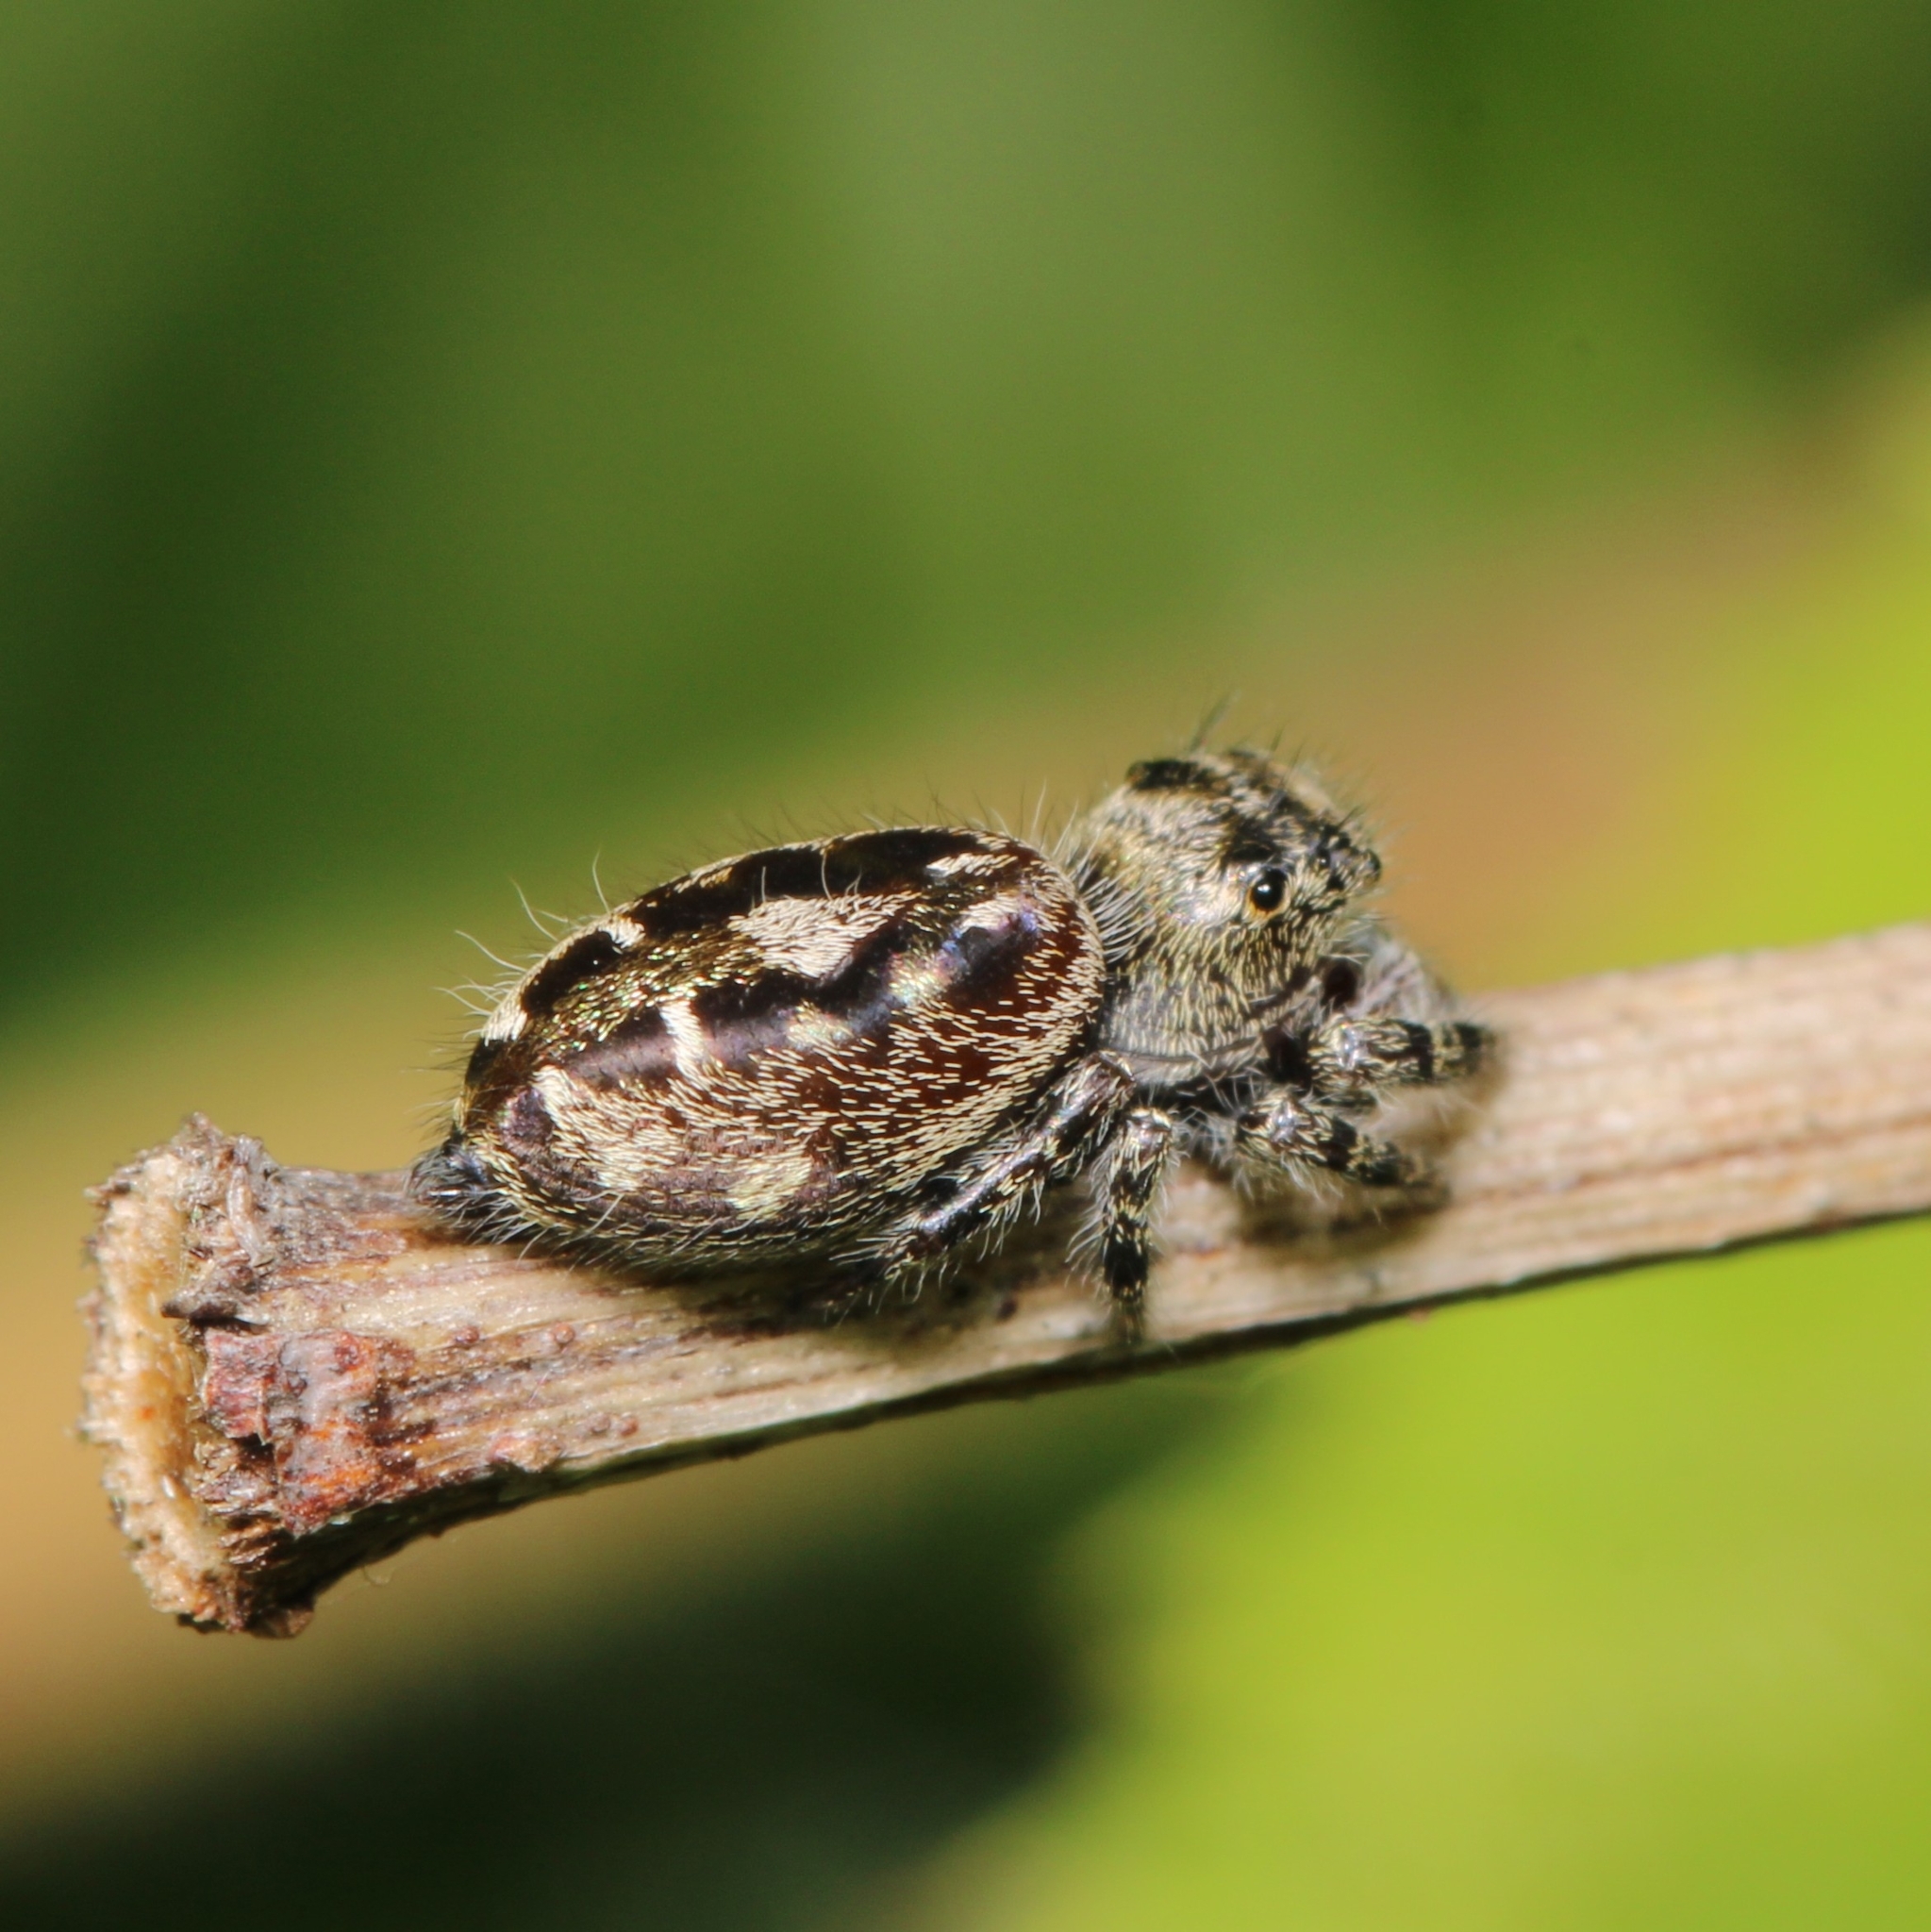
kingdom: Animalia
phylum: Arthropoda
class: Arachnida
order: Araneae
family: Salticidae
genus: Phidippus
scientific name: Phidippus putnami
